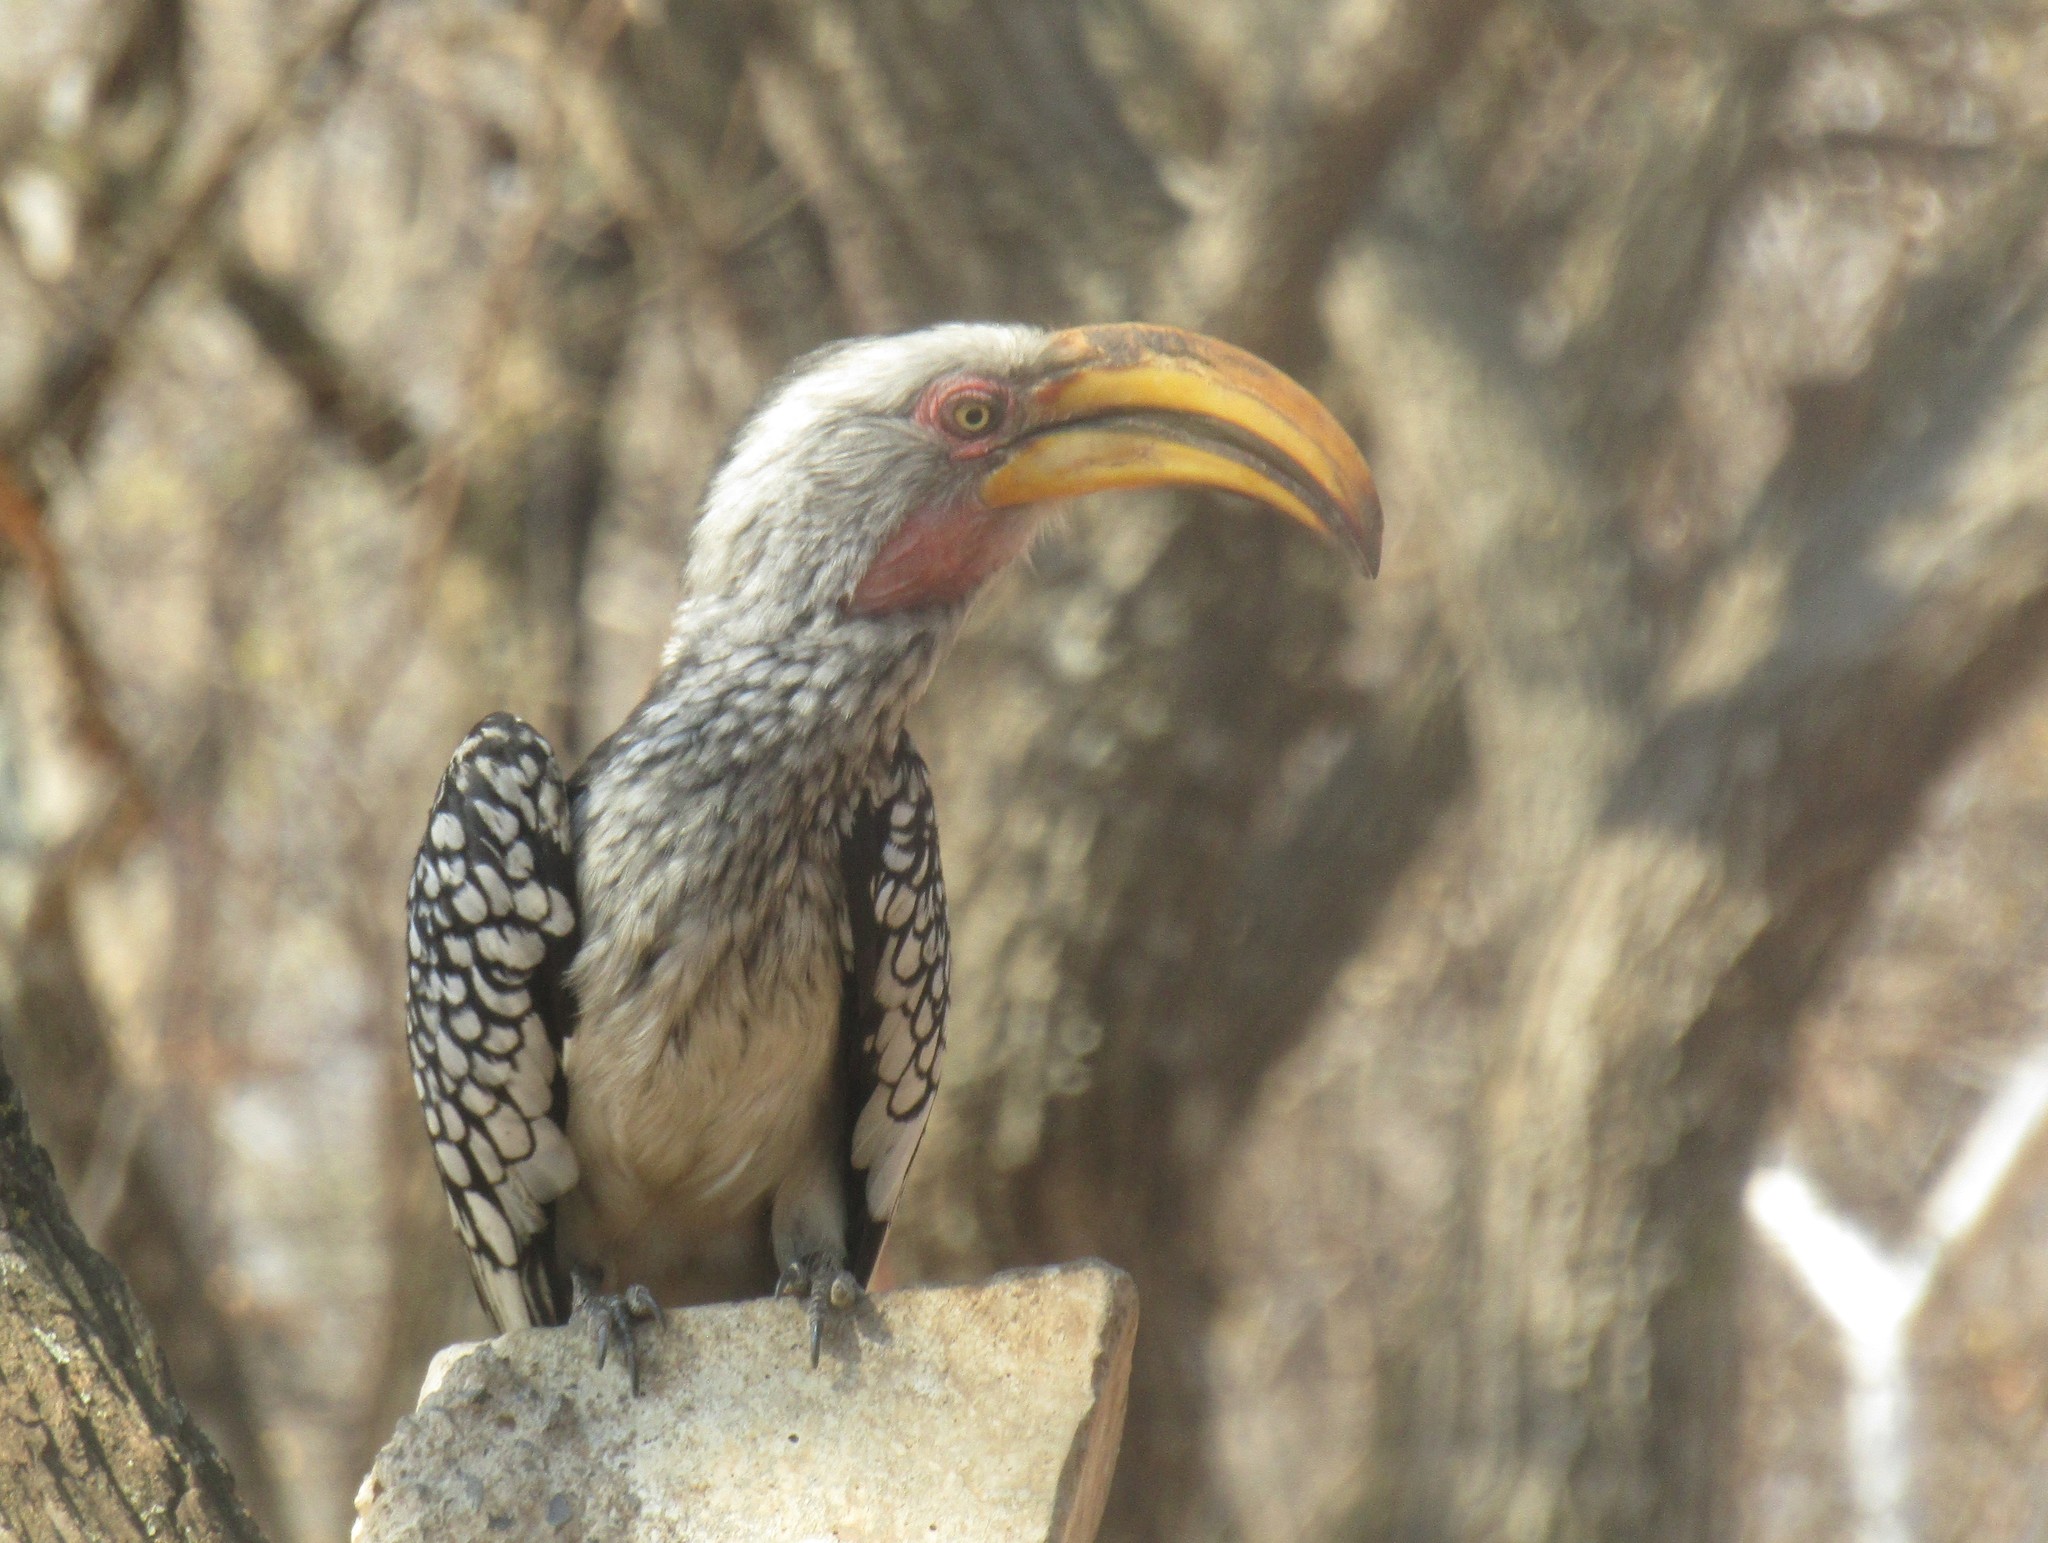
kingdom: Animalia
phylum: Chordata
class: Aves
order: Bucerotiformes
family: Bucerotidae
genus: Tockus
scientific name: Tockus leucomelas
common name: Southern yellow-billed hornbill
